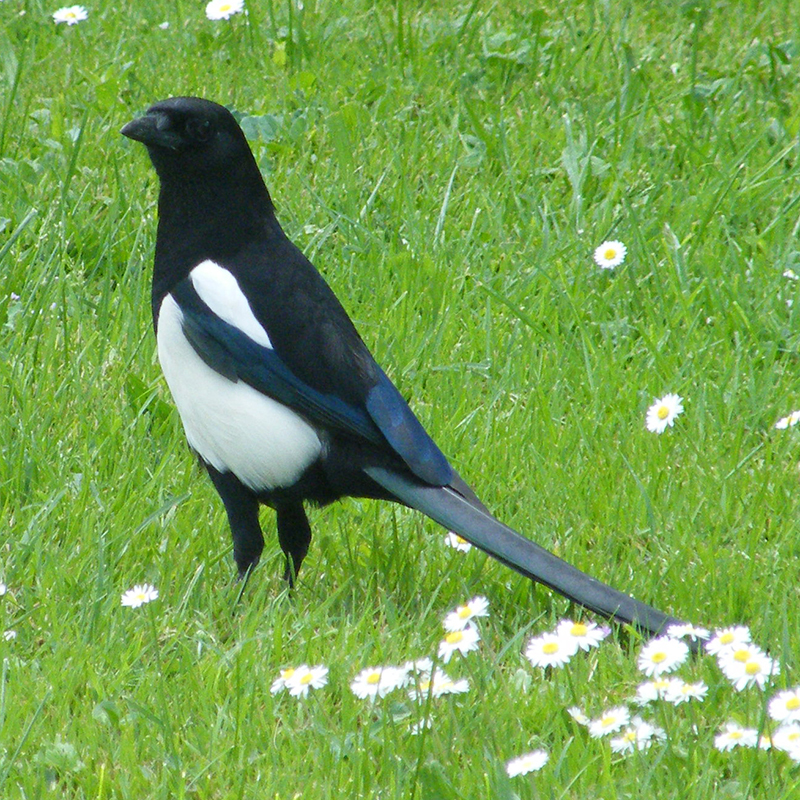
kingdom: Animalia
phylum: Chordata
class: Aves
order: Passeriformes
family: Corvidae
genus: Pica
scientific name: Pica pica
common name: Eurasian magpie
